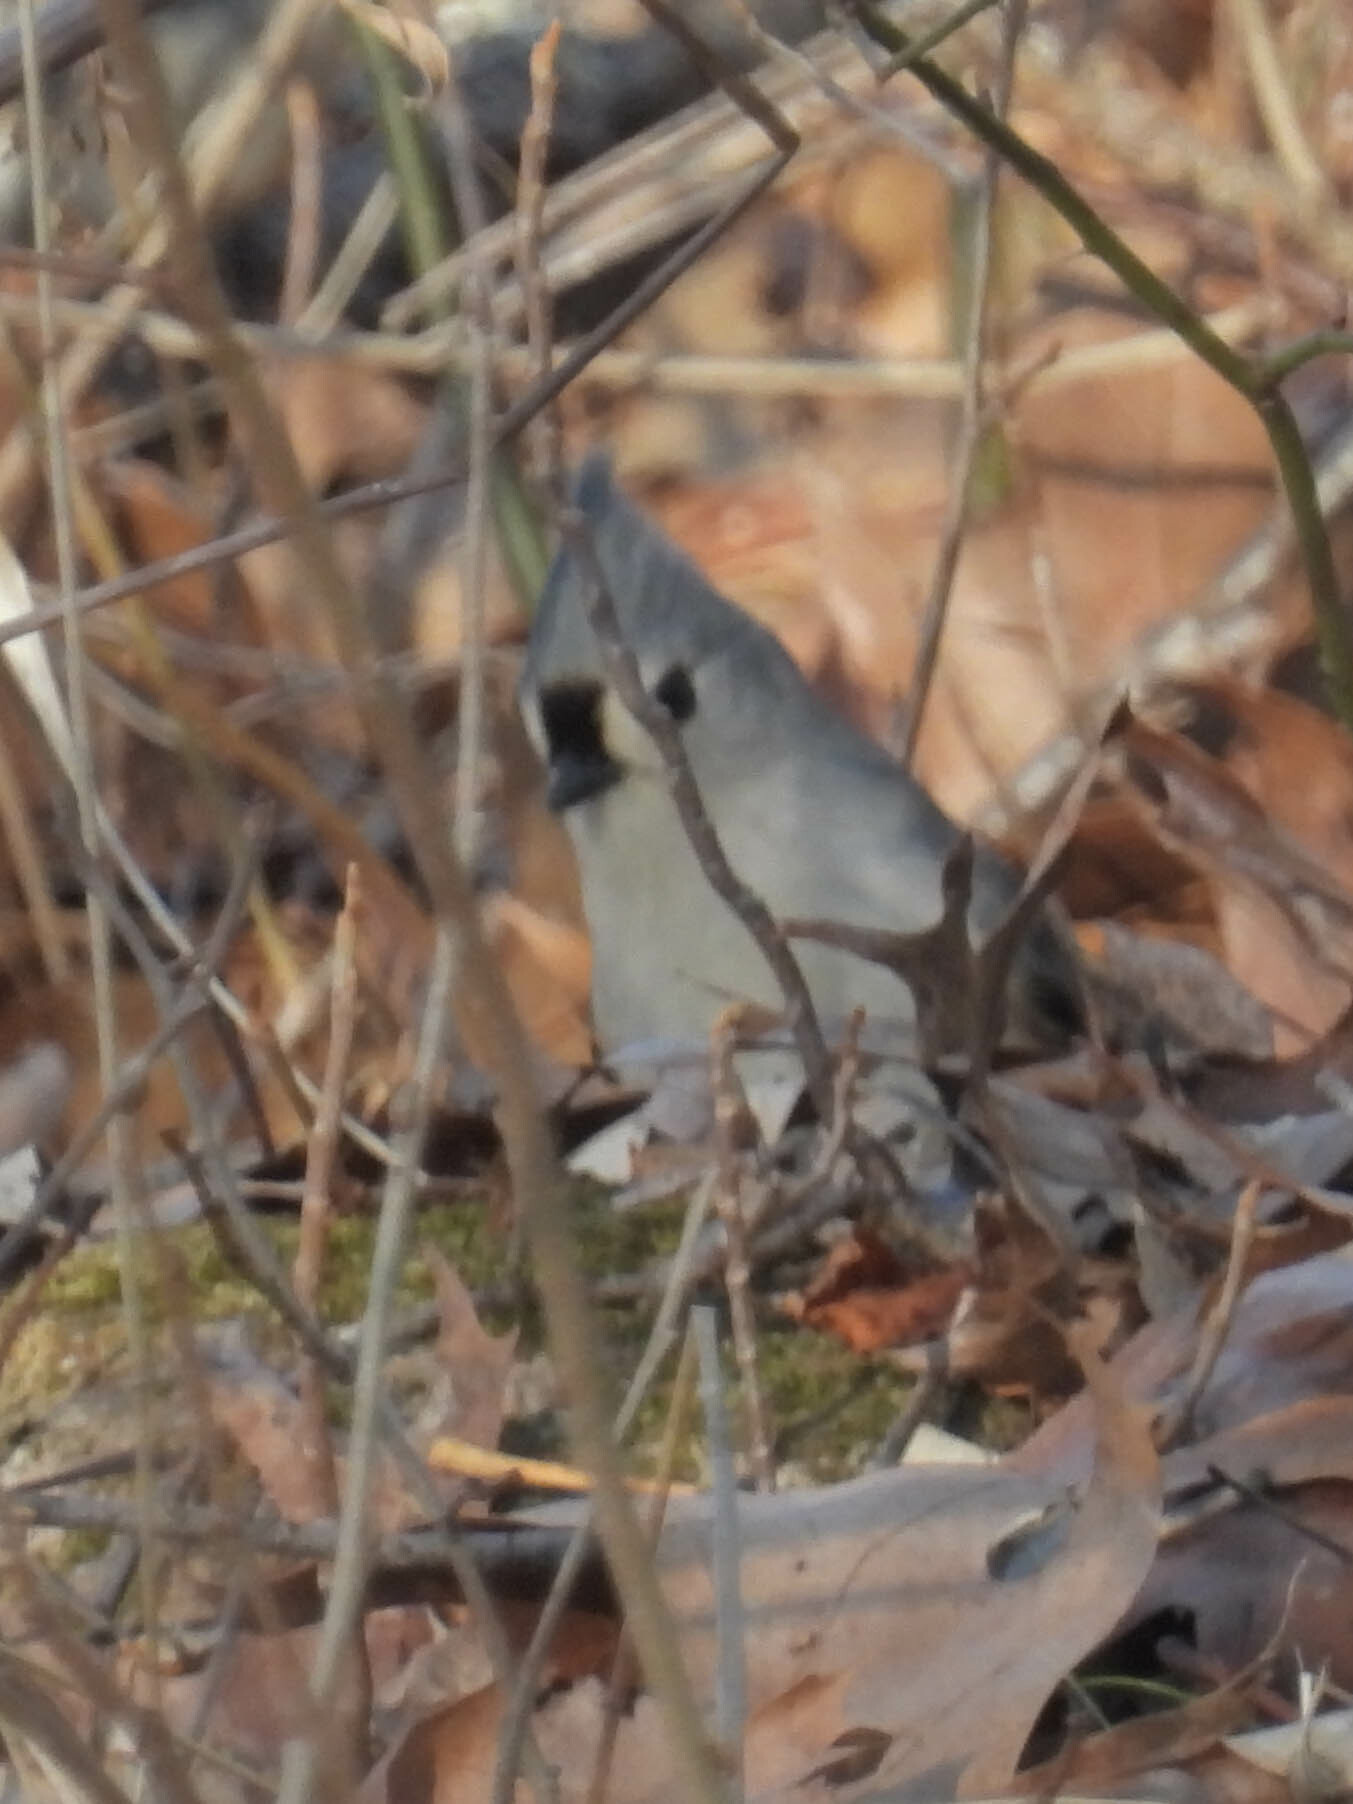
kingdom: Animalia
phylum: Chordata
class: Aves
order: Passeriformes
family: Paridae
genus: Baeolophus
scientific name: Baeolophus bicolor
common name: Tufted titmouse
